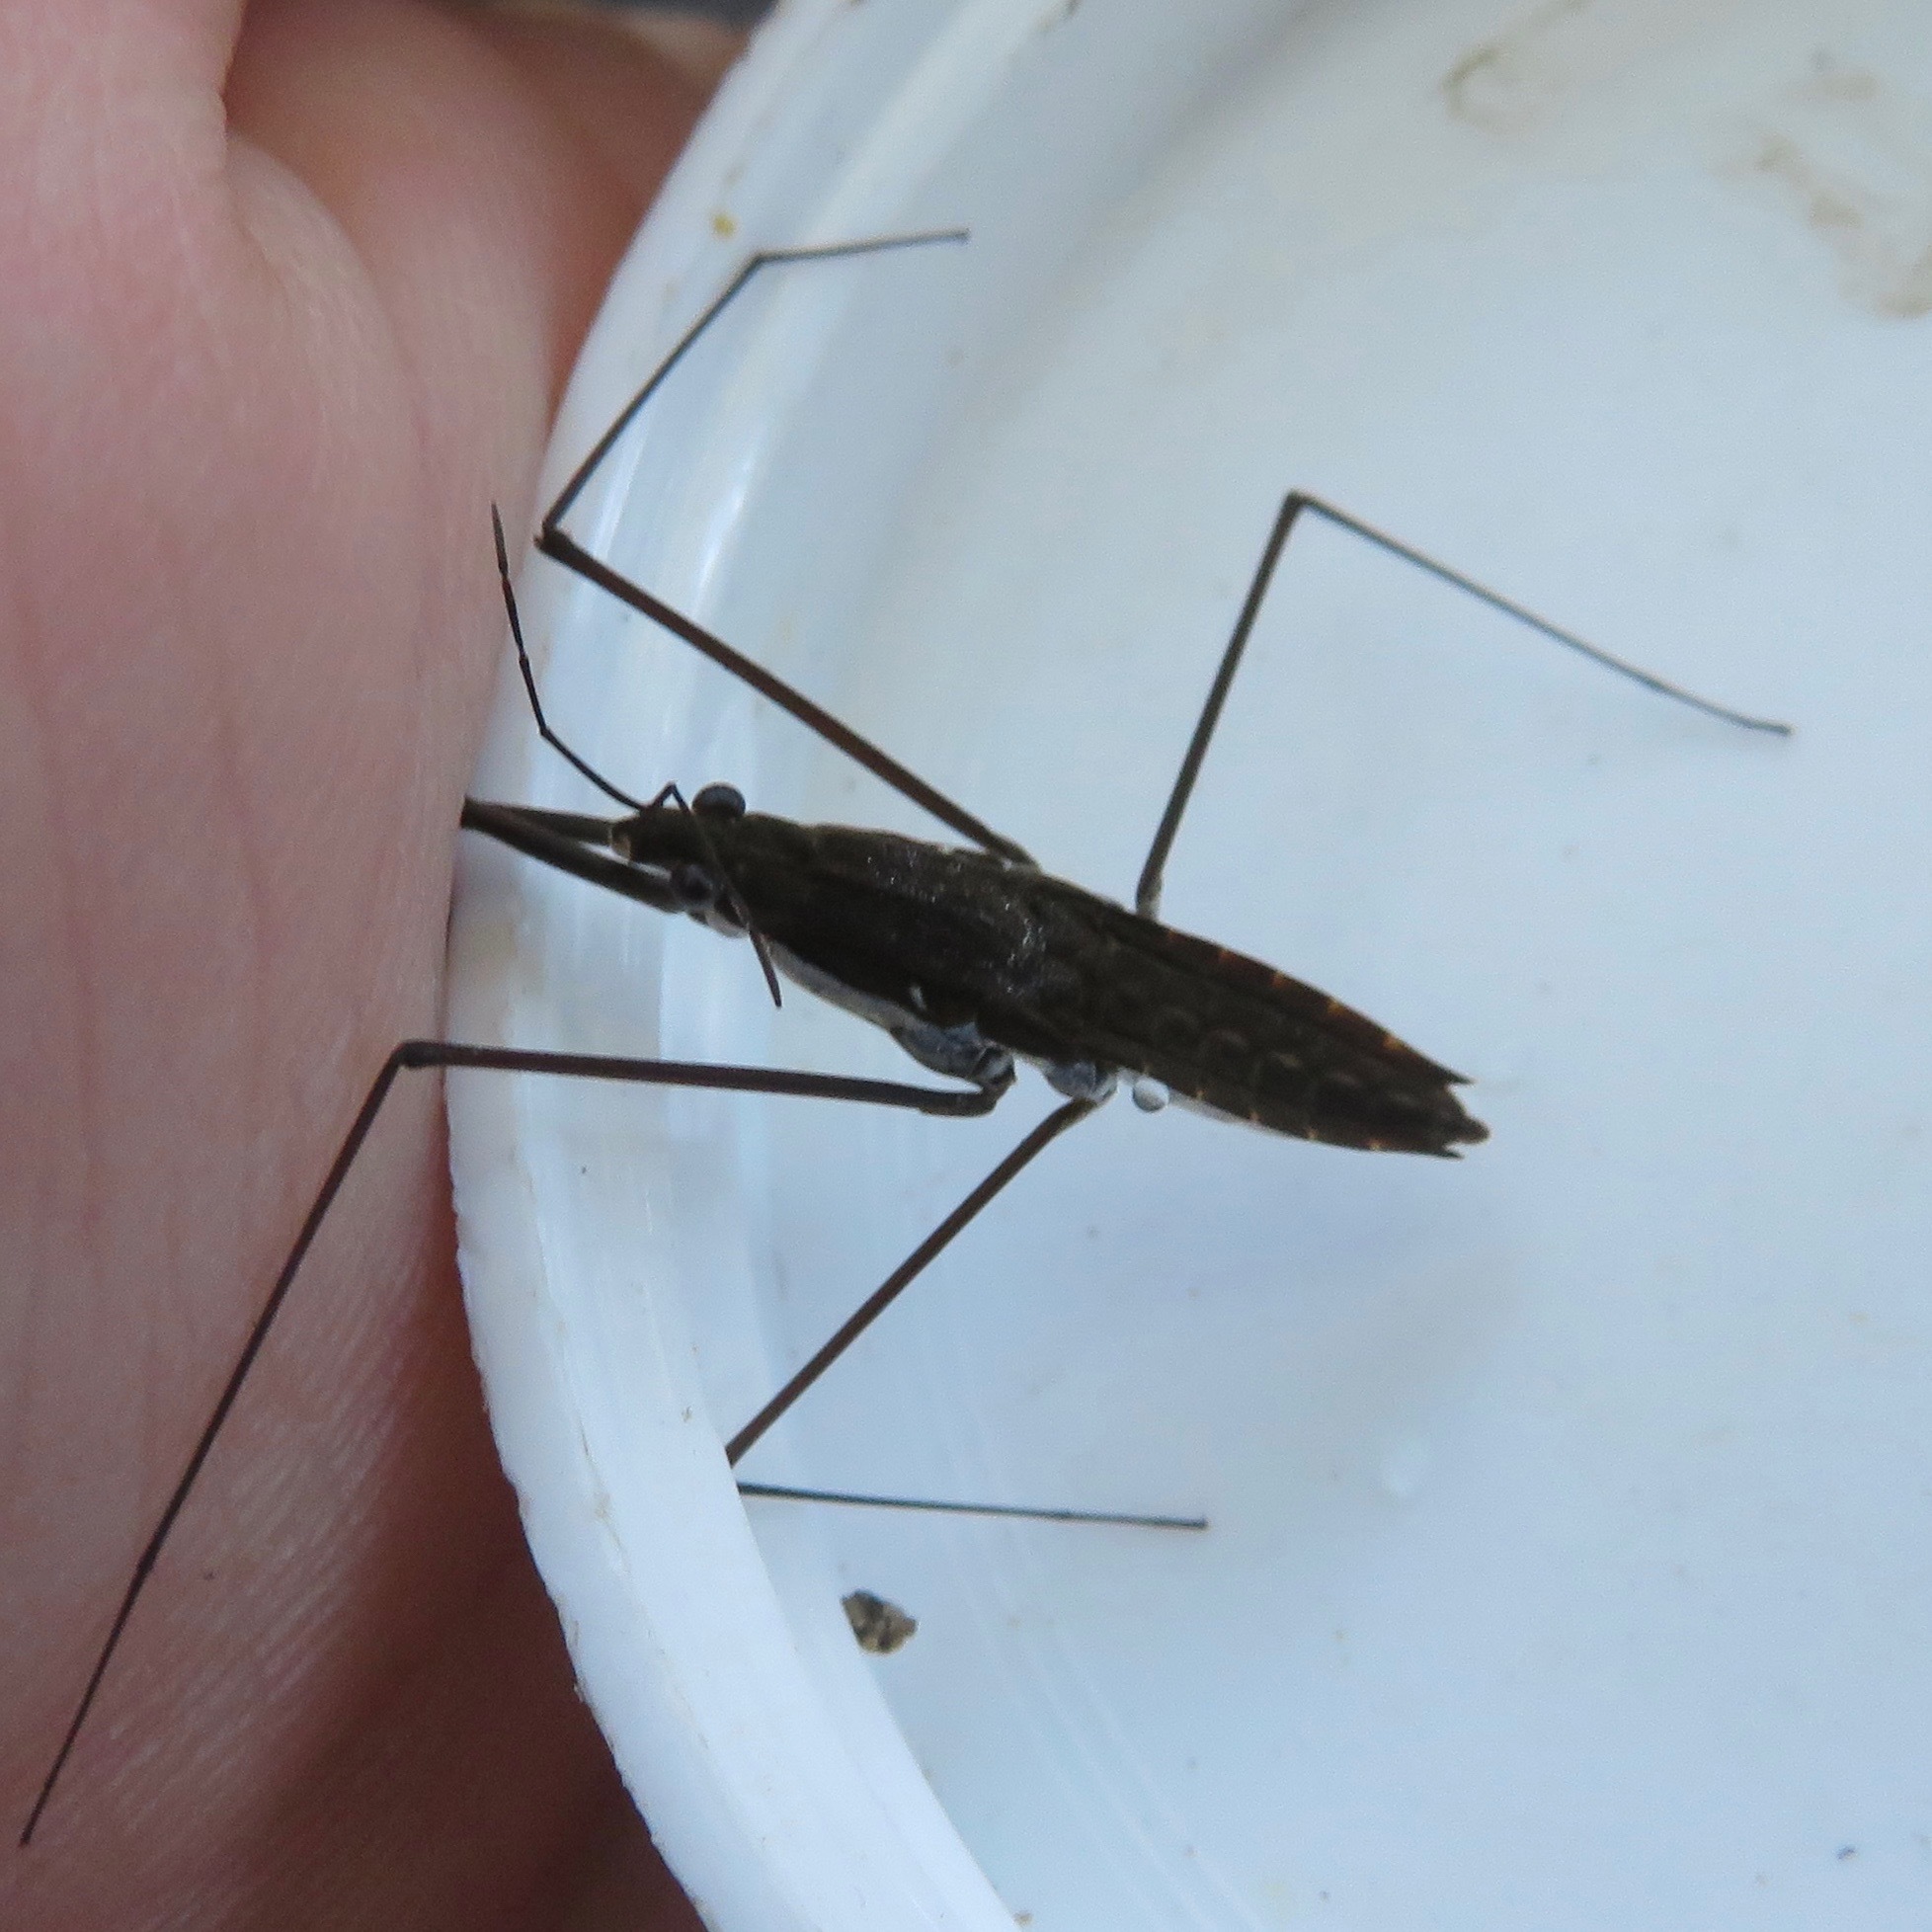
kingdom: Animalia
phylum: Arthropoda
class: Insecta
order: Hemiptera
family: Gerridae
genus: Aquarius
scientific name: Aquarius remigis
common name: Common water strider
